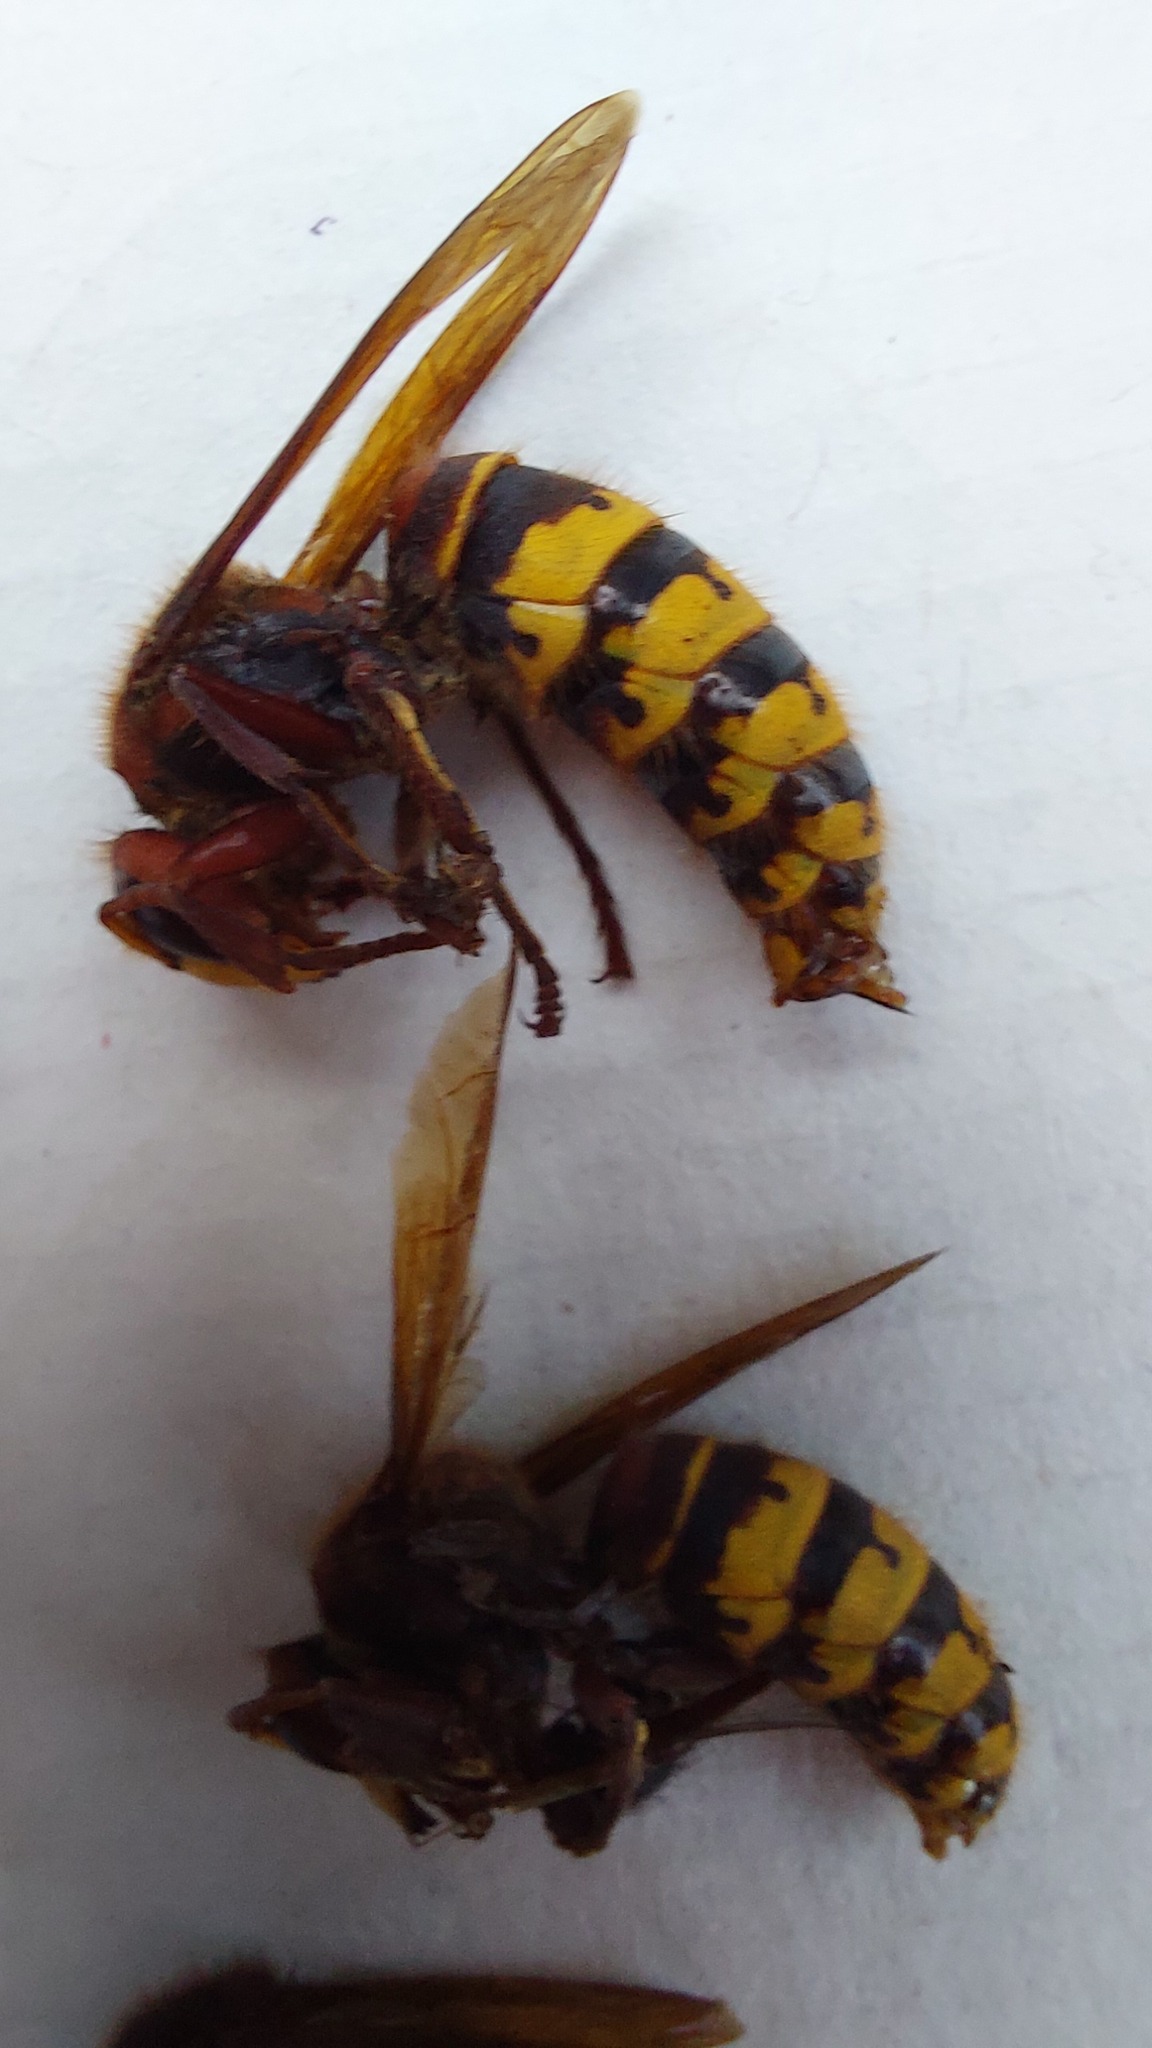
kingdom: Animalia
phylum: Arthropoda
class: Insecta
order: Hymenoptera
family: Vespidae
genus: Vespa
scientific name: Vespa crabro
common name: Hornet
